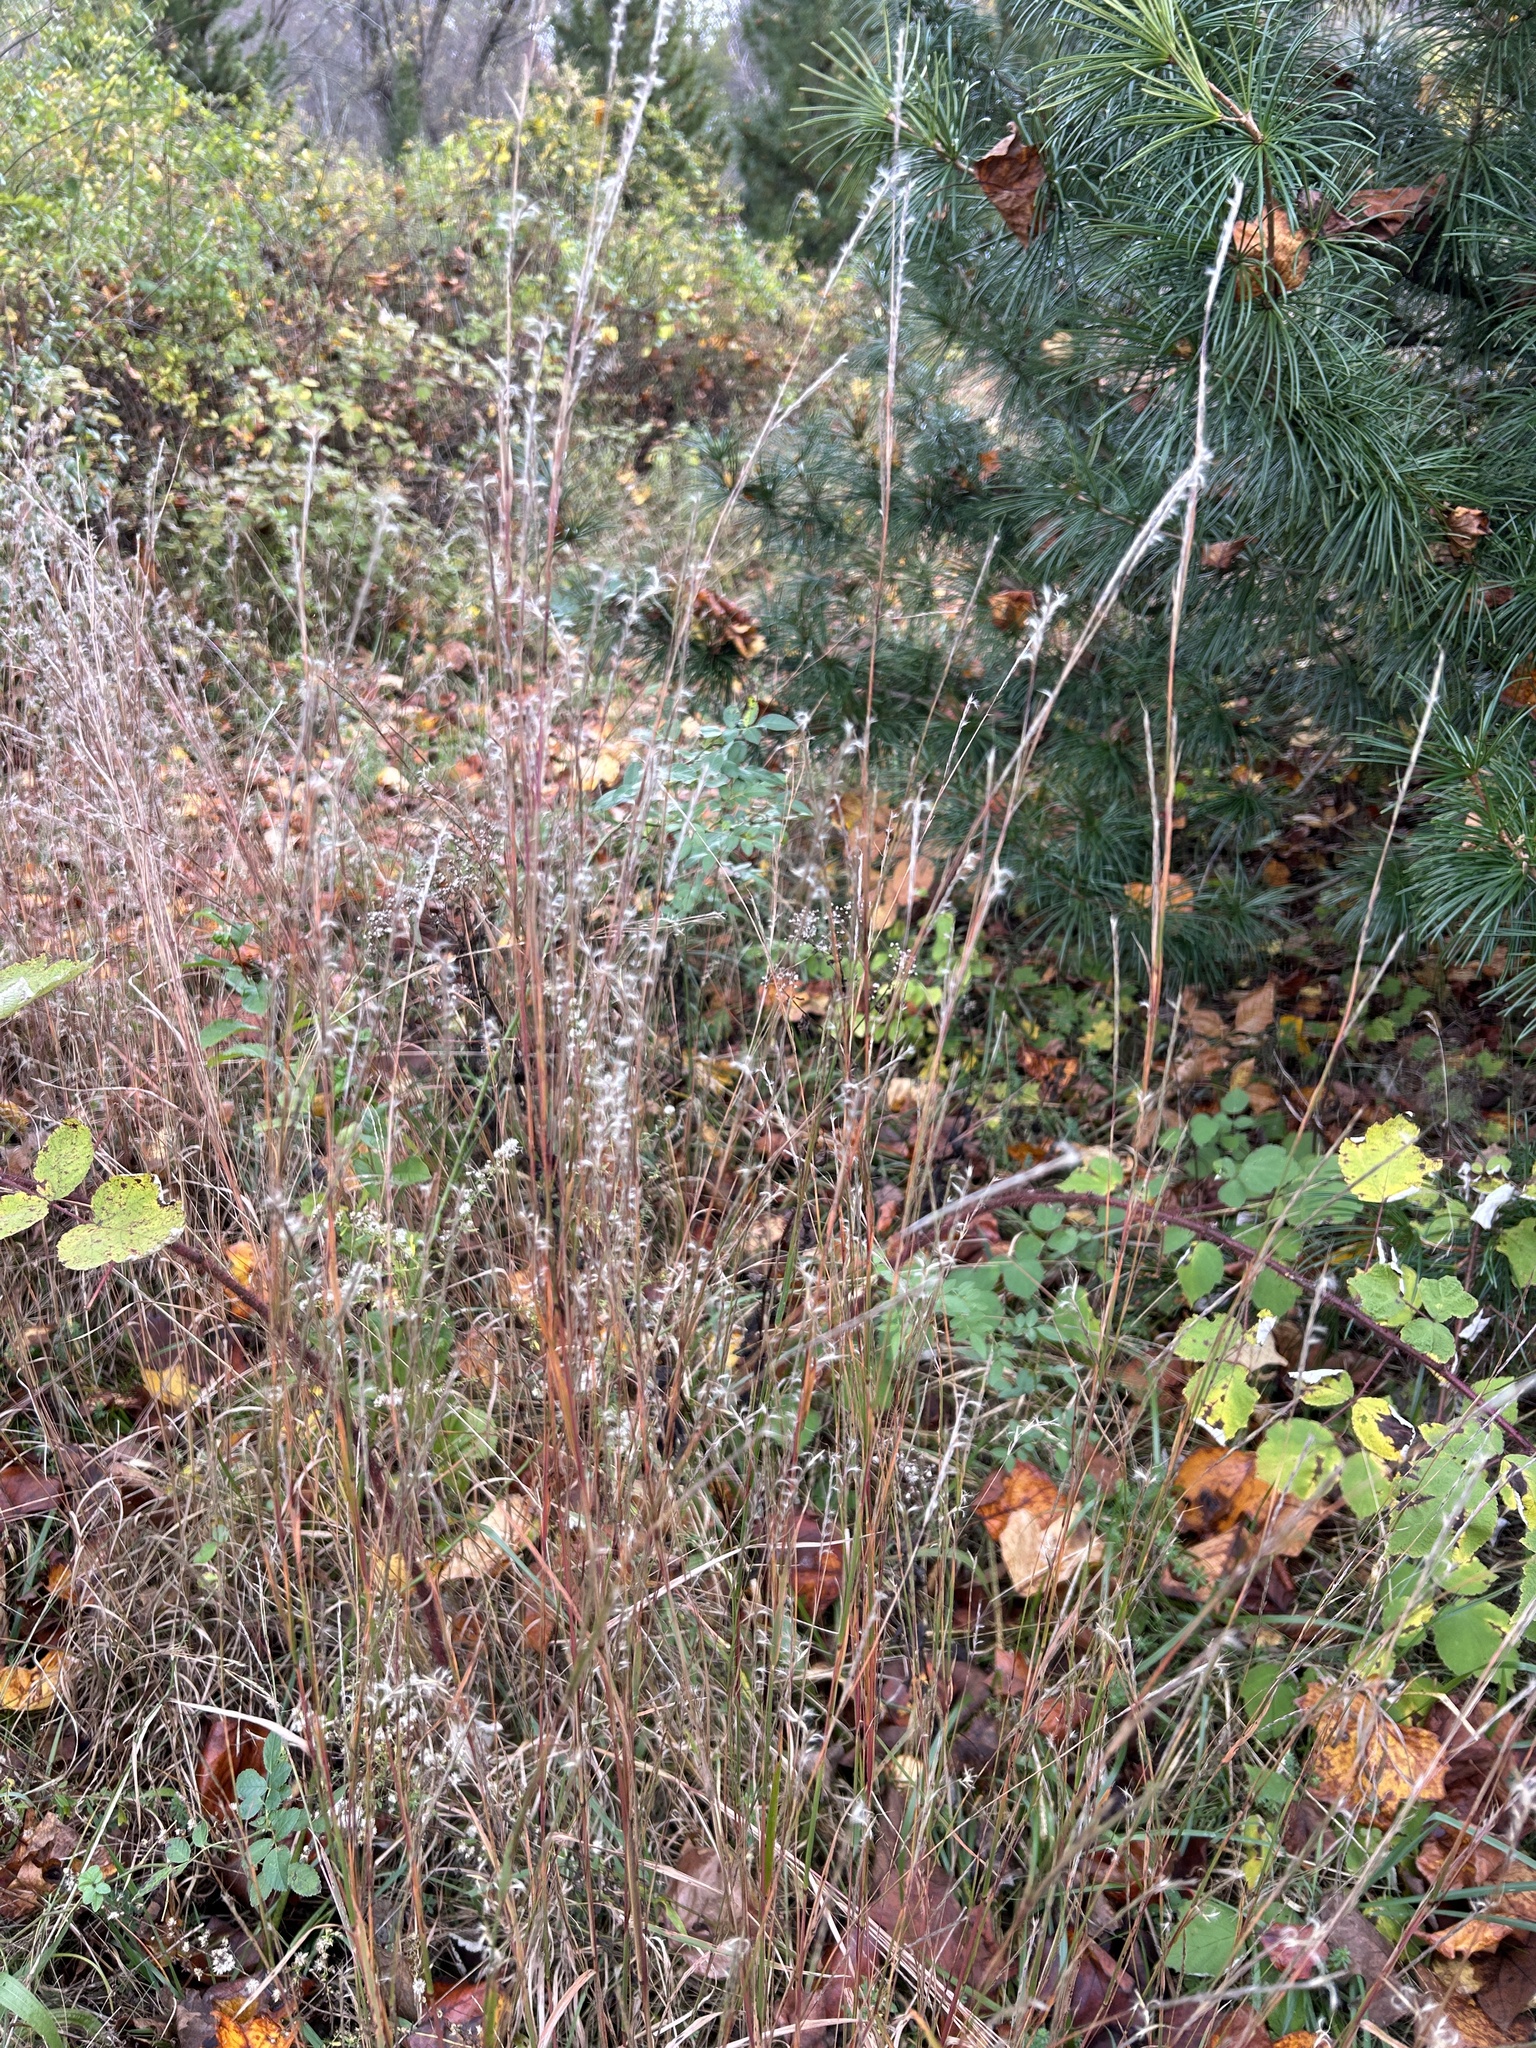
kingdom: Plantae
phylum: Tracheophyta
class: Liliopsida
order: Poales
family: Poaceae
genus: Schizachyrium
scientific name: Schizachyrium scoparium
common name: Little bluestem
